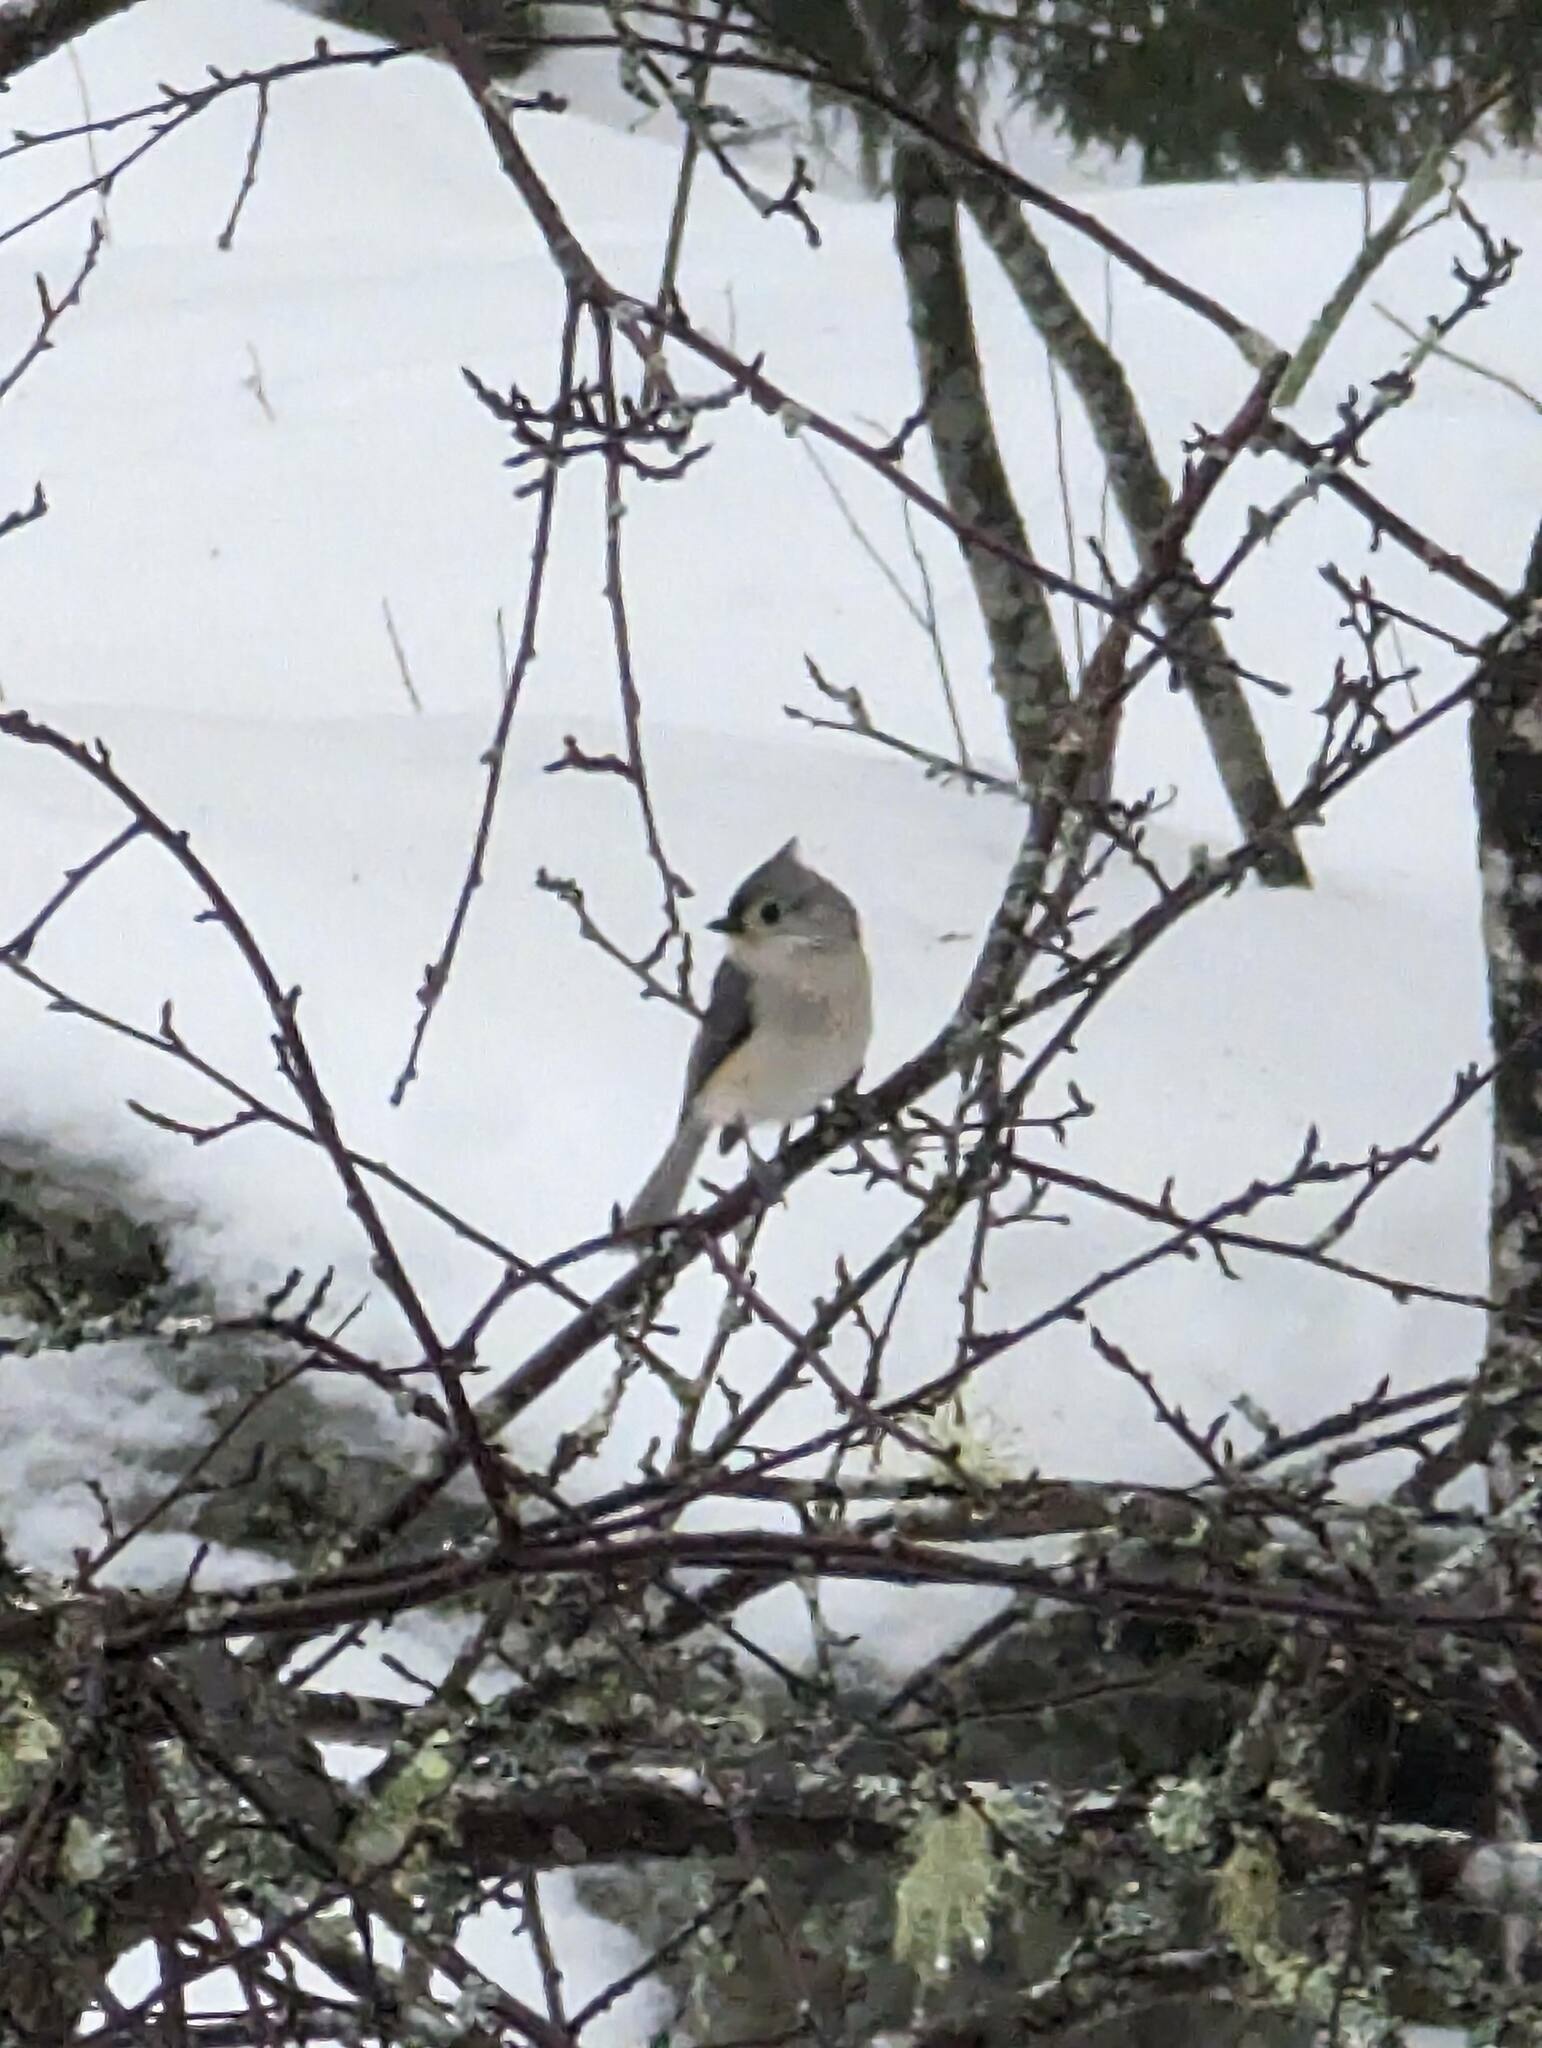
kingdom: Animalia
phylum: Chordata
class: Aves
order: Passeriformes
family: Paridae
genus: Baeolophus
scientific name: Baeolophus bicolor
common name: Tufted titmouse
